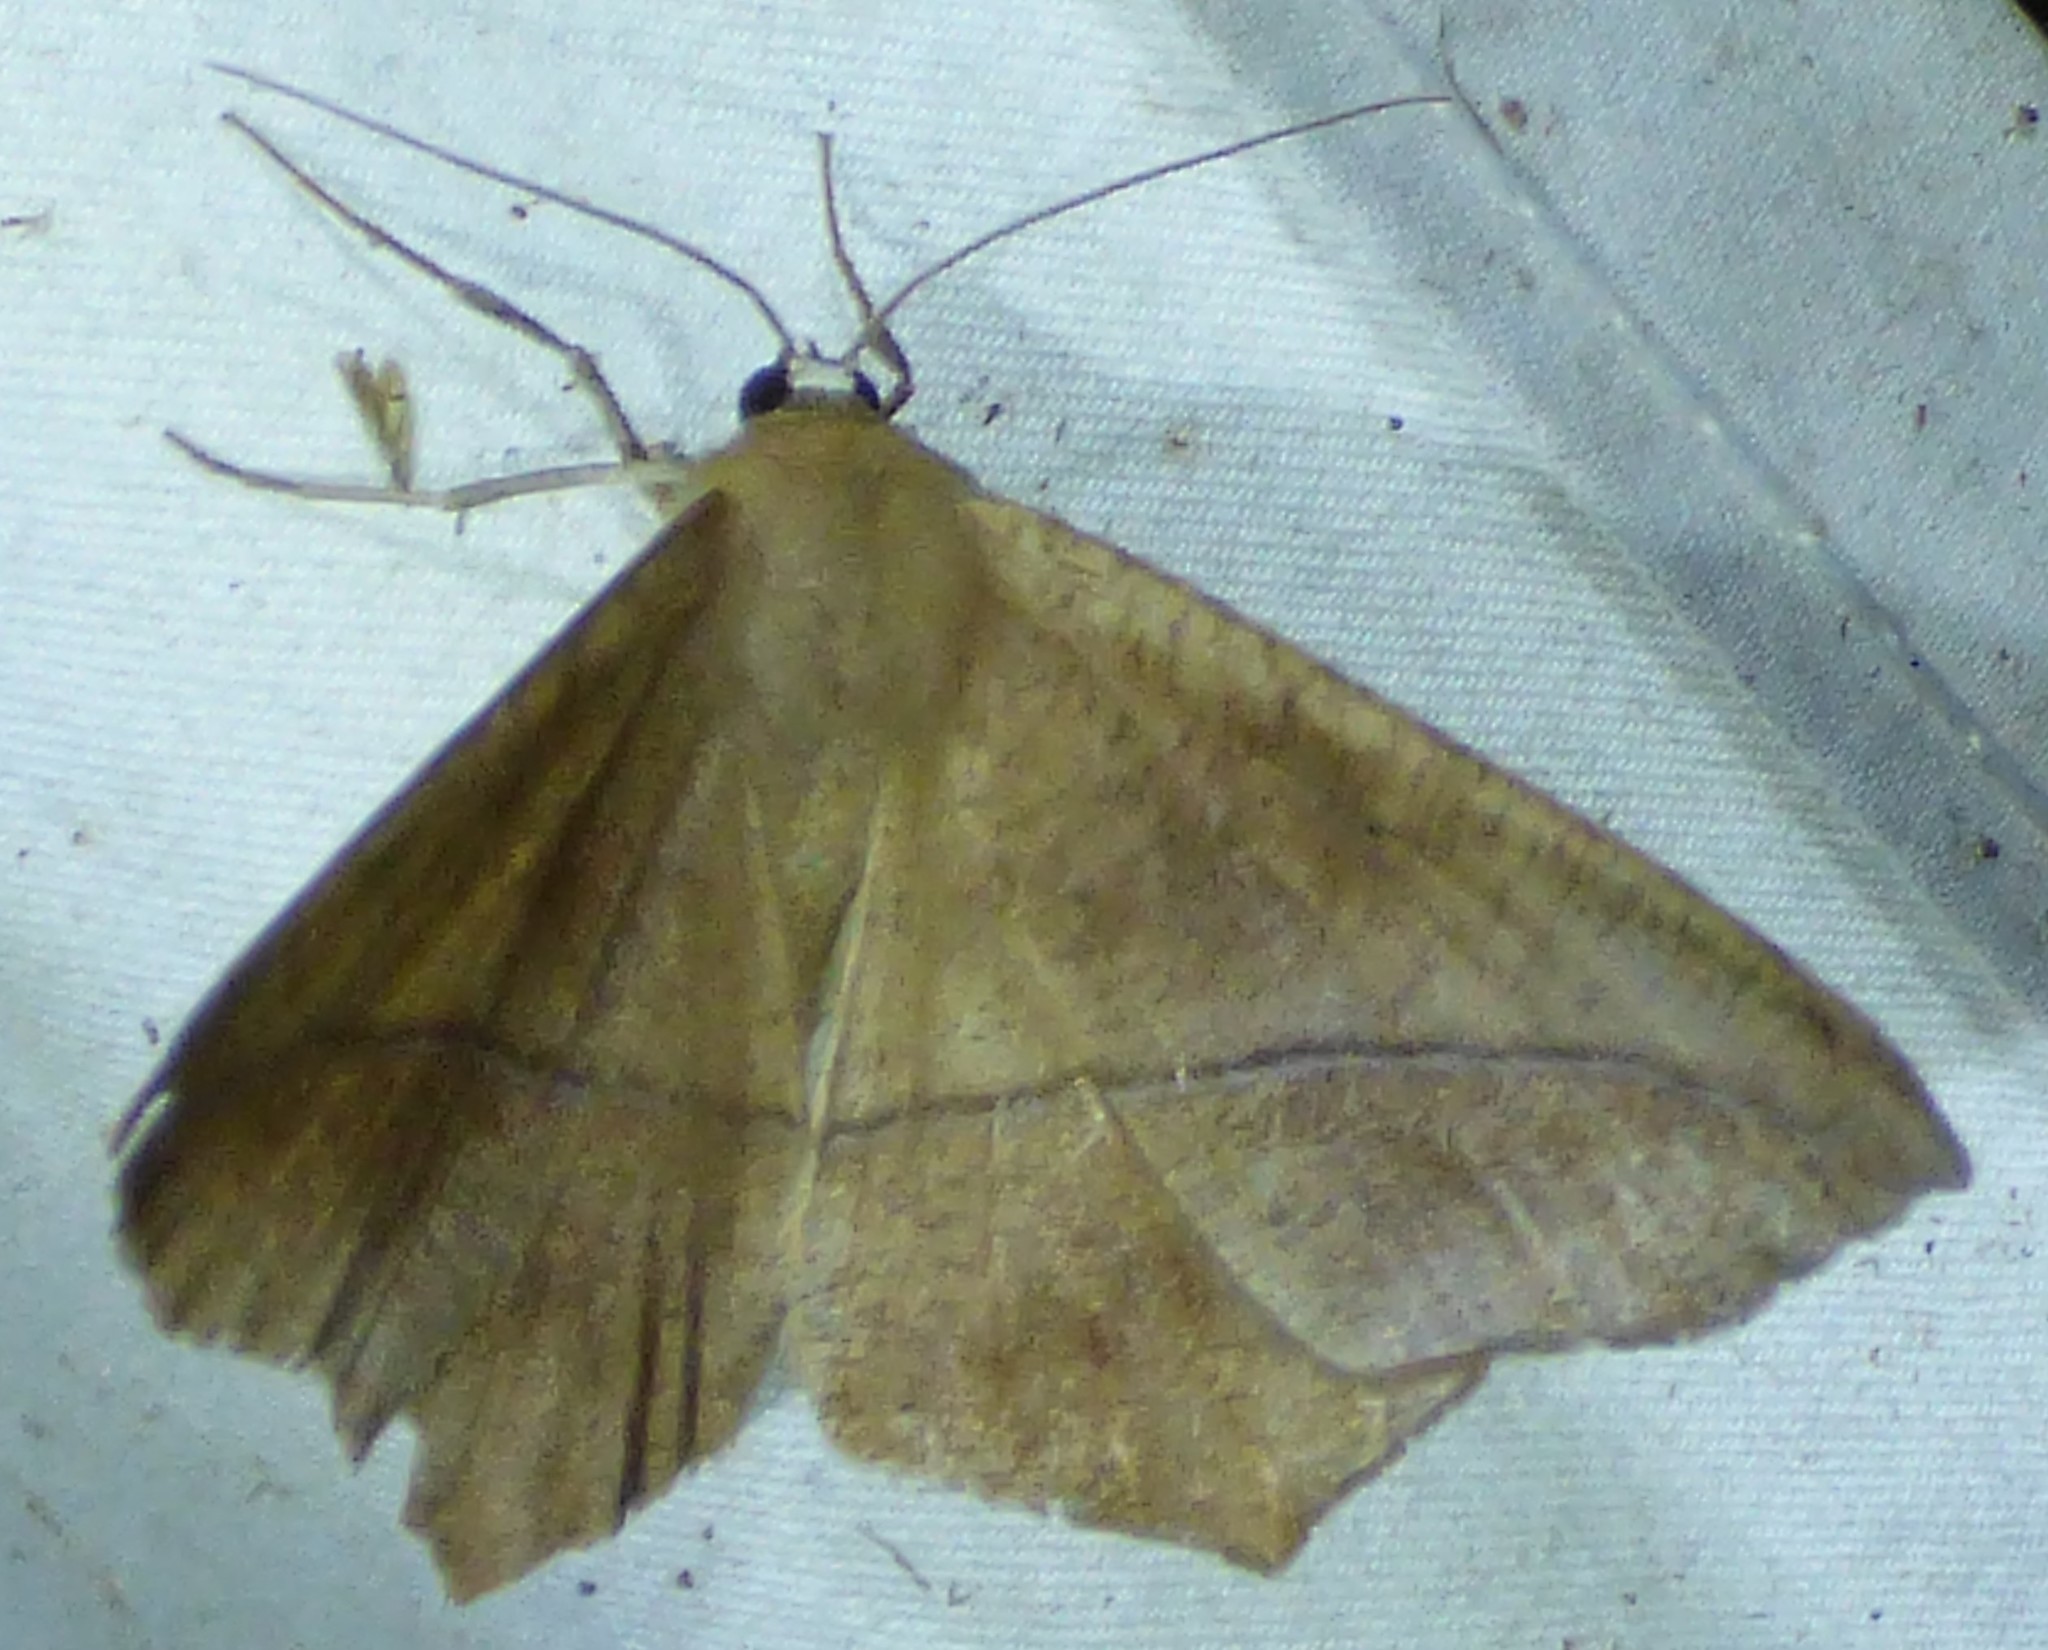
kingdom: Animalia
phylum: Arthropoda
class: Insecta
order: Lepidoptera
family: Geometridae
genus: Prochoerodes
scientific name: Prochoerodes lineola
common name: Large maple spanworm
